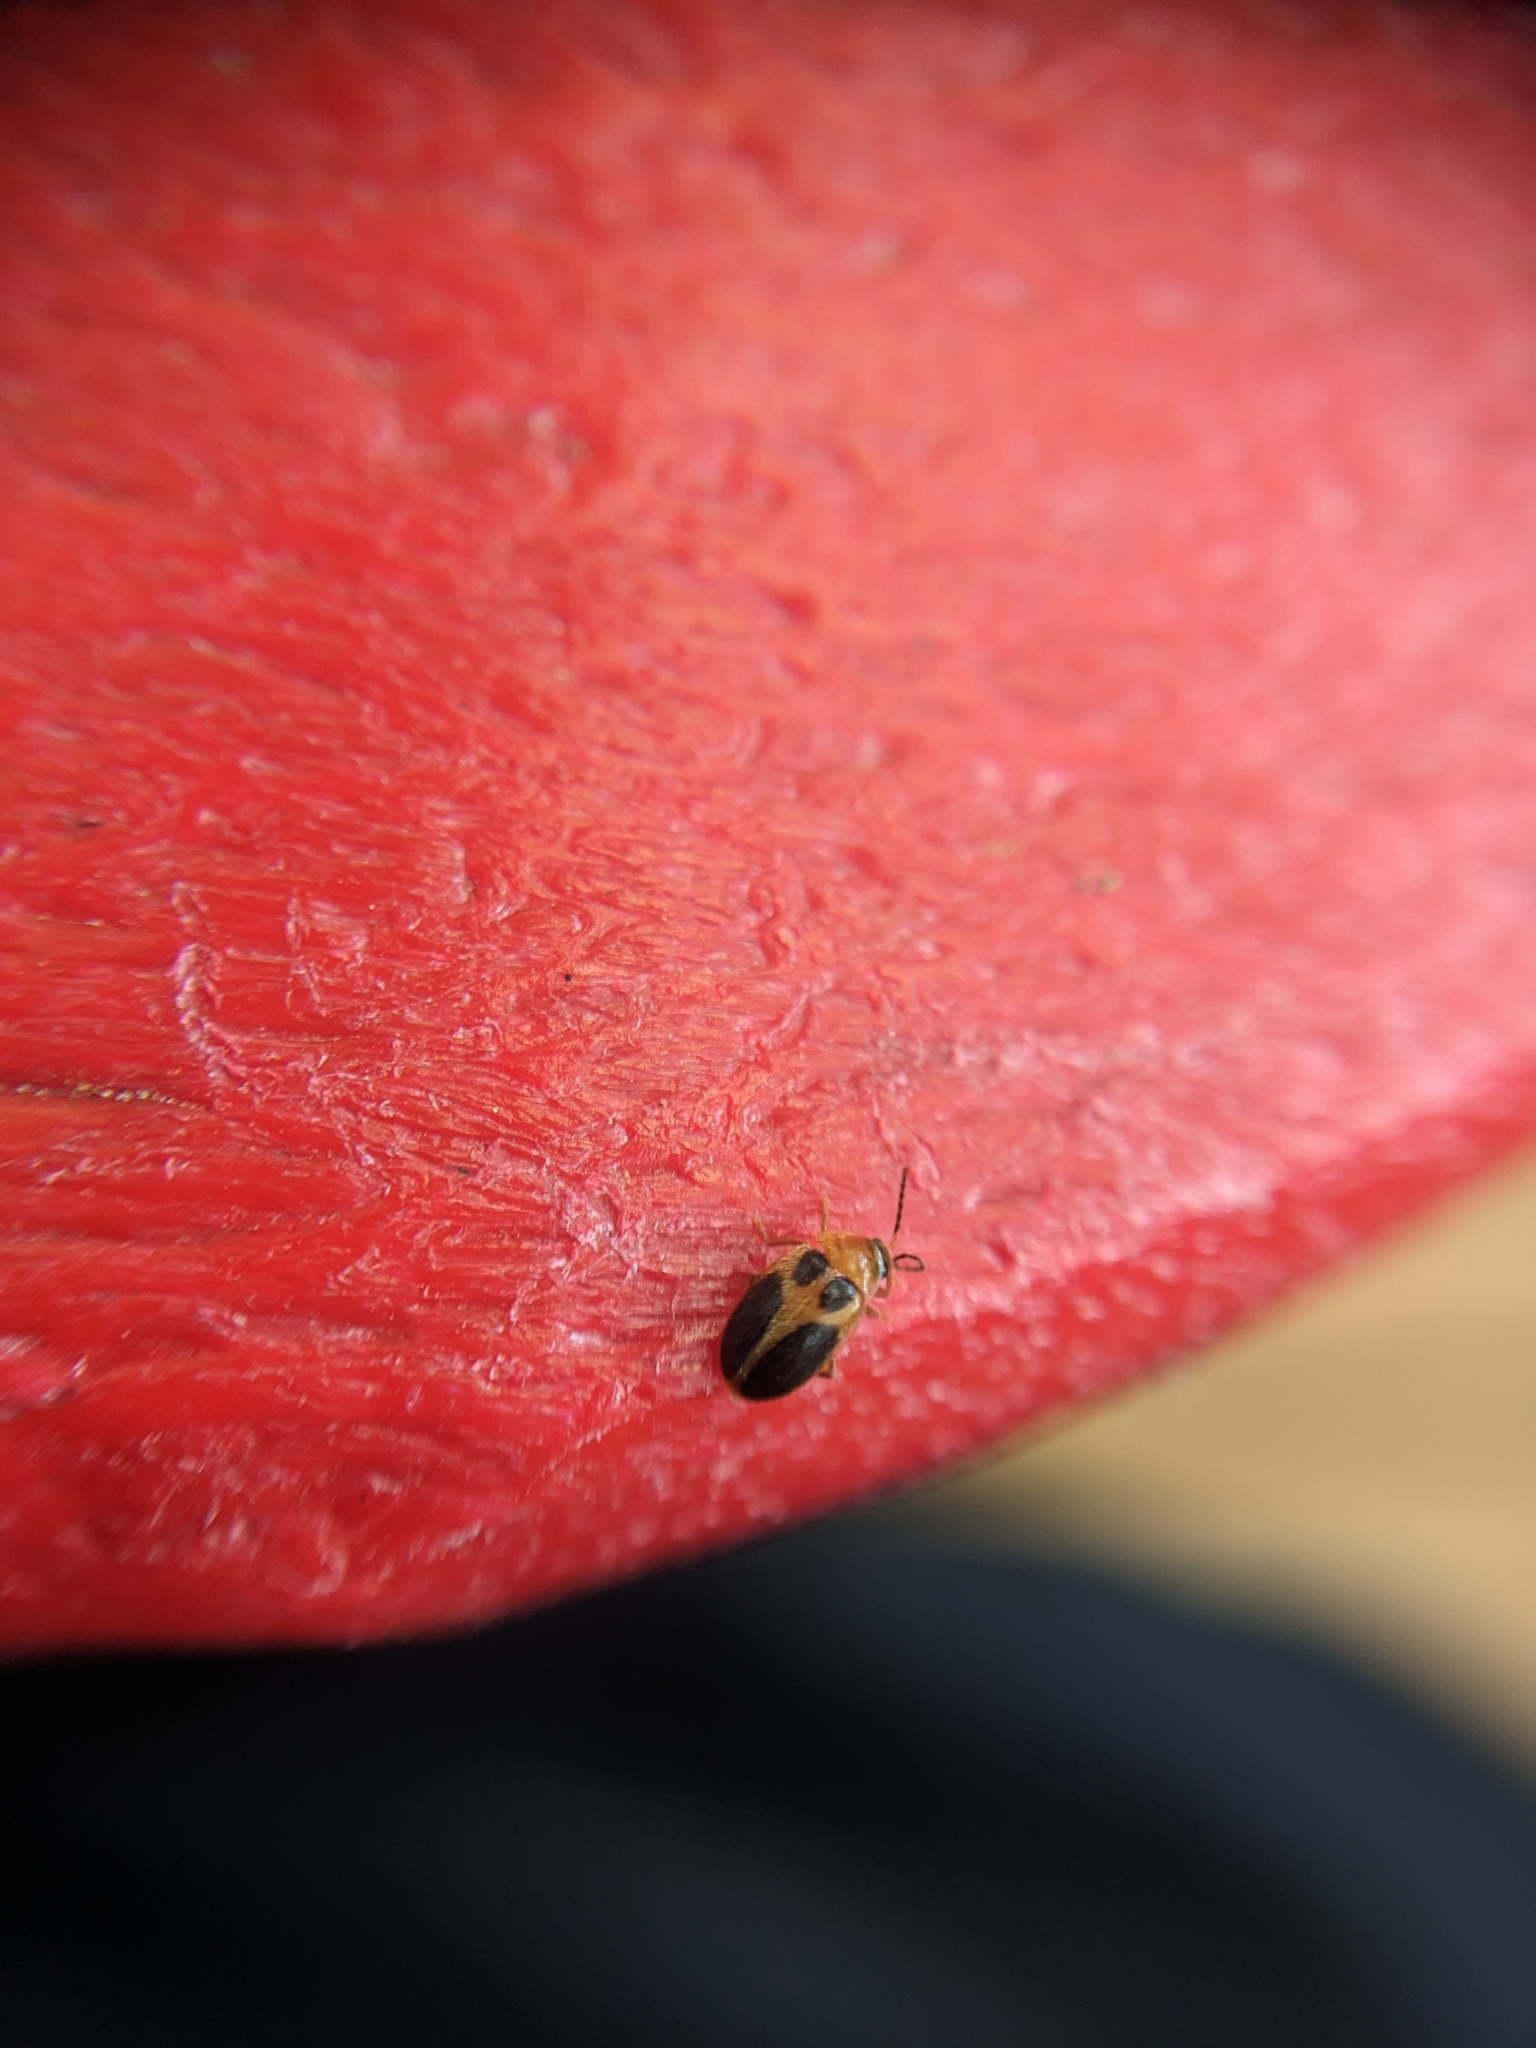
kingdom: Animalia
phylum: Arthropoda
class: Insecta
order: Coleoptera
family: Scirtidae
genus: Sacodes
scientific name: Sacodes pulchella
